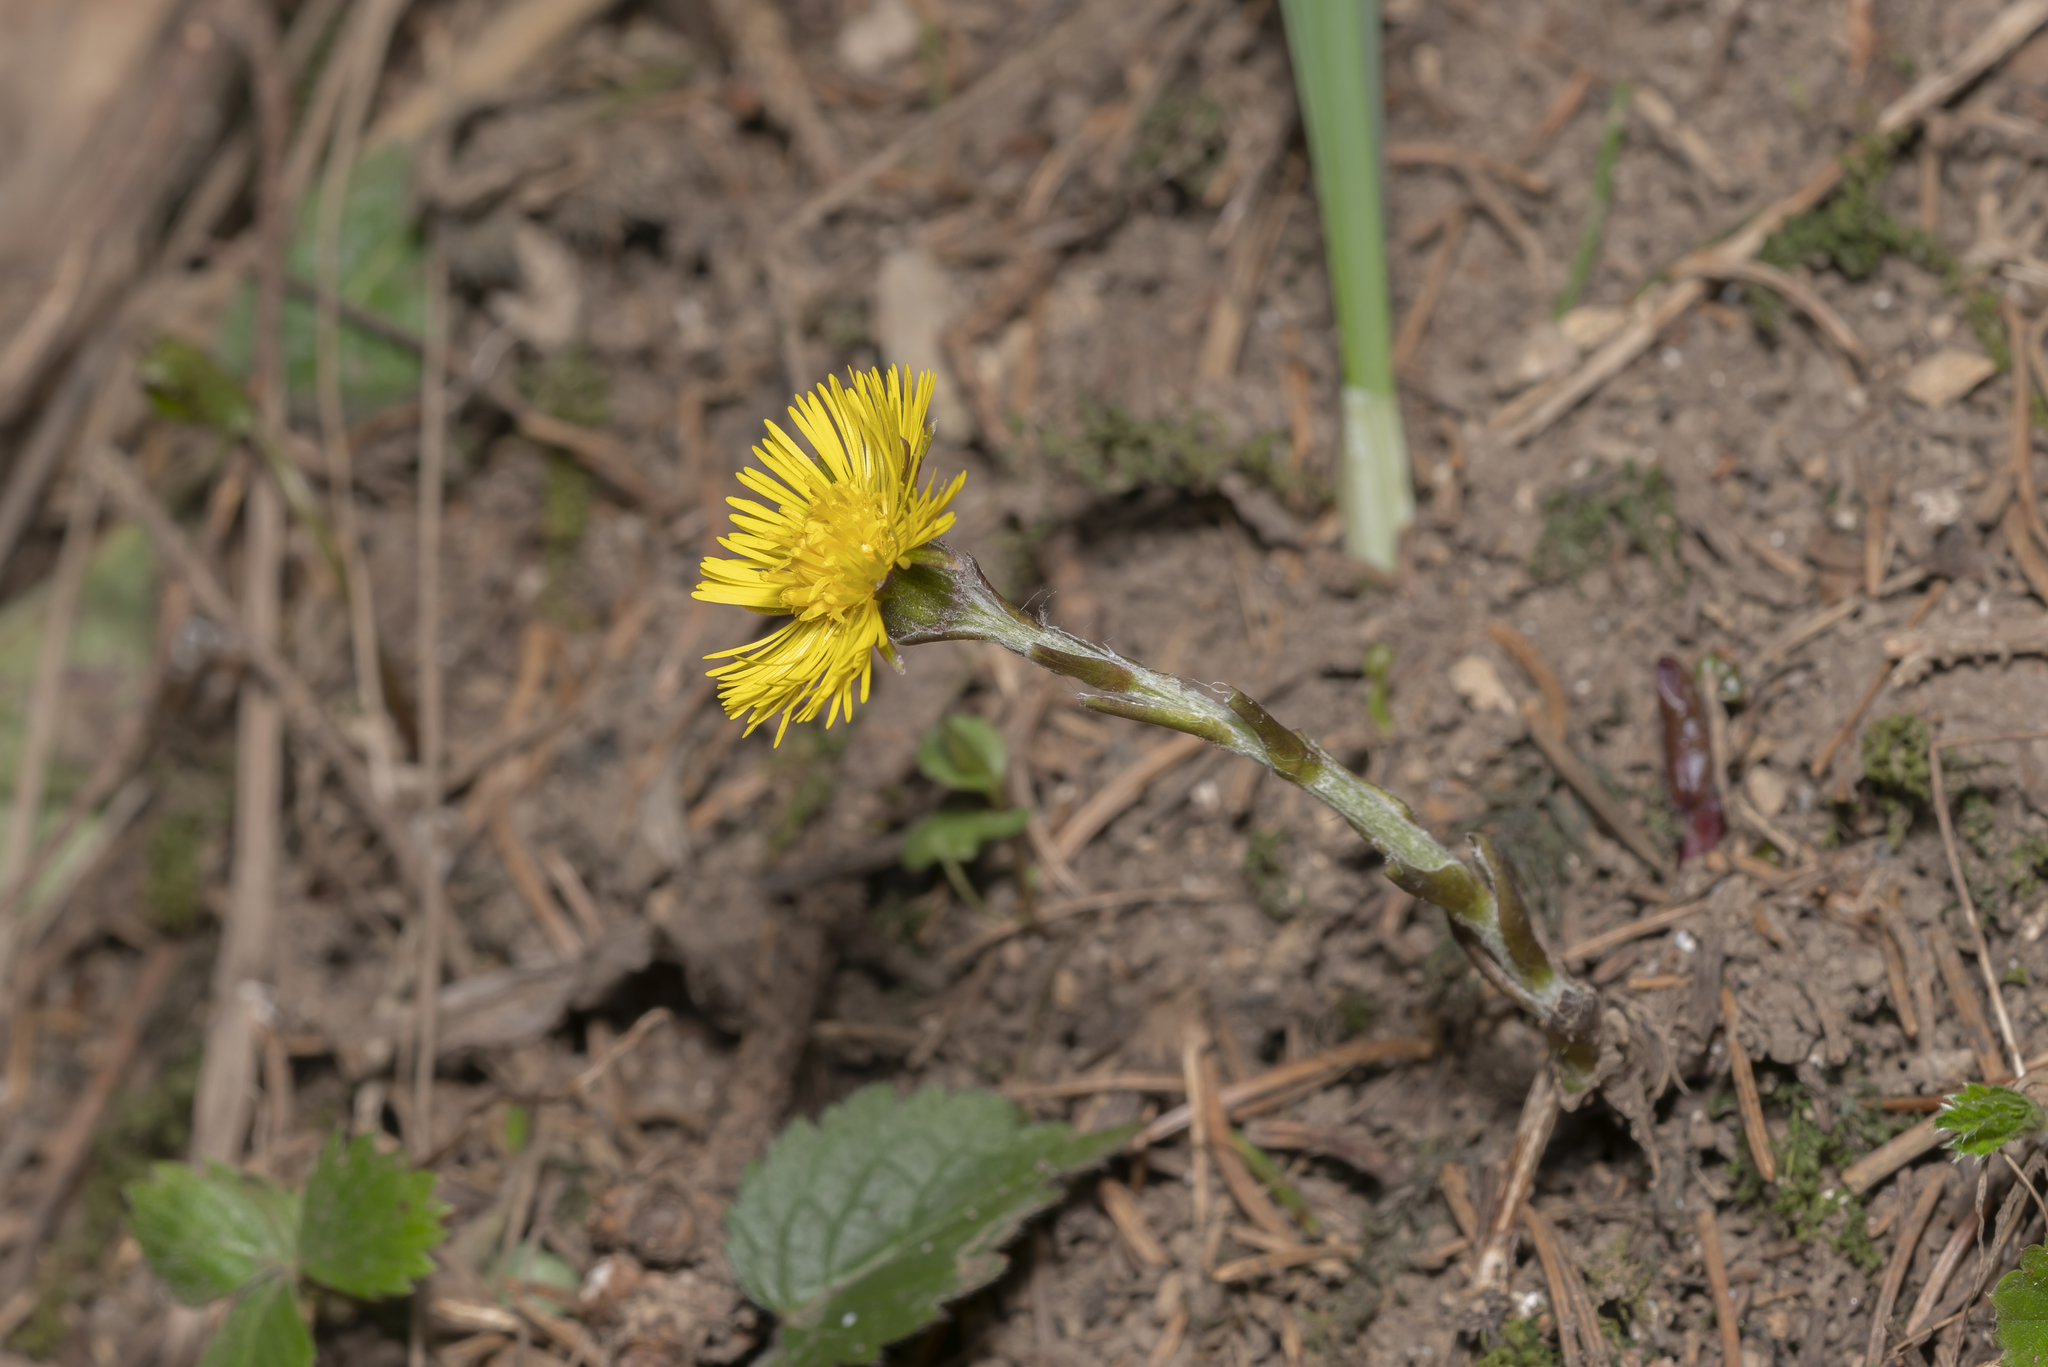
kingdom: Plantae
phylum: Tracheophyta
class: Magnoliopsida
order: Asterales
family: Asteraceae
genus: Tussilago
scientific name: Tussilago farfara
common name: Coltsfoot
